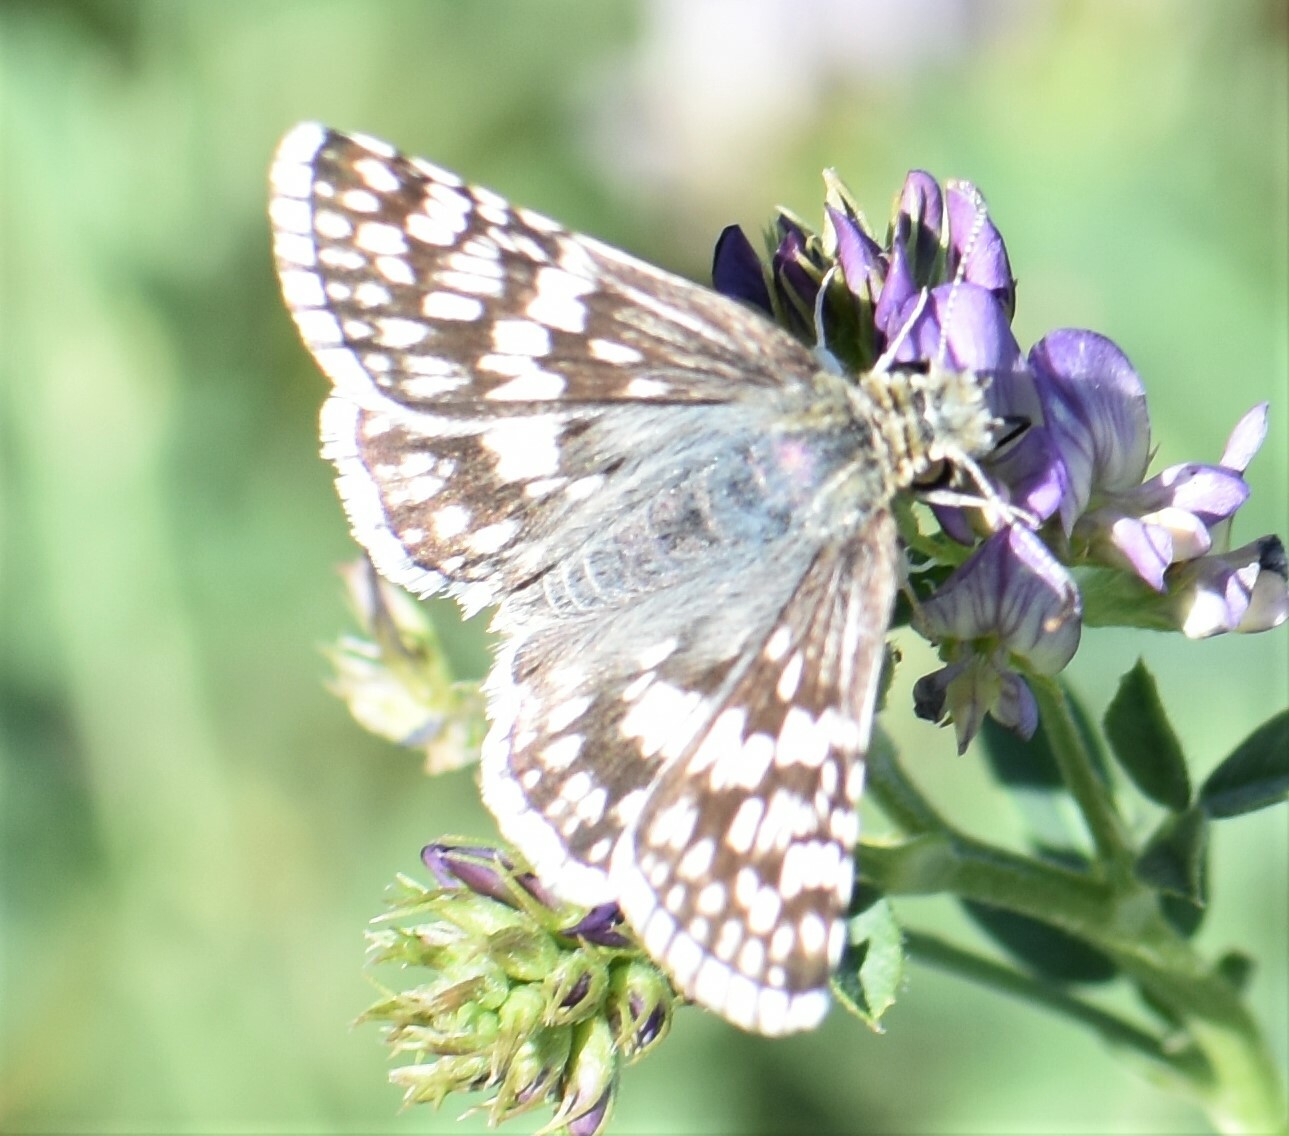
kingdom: Animalia
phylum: Arthropoda
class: Insecta
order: Lepidoptera
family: Hesperiidae
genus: Burnsius
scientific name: Burnsius communis
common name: Common checkered-skipper
